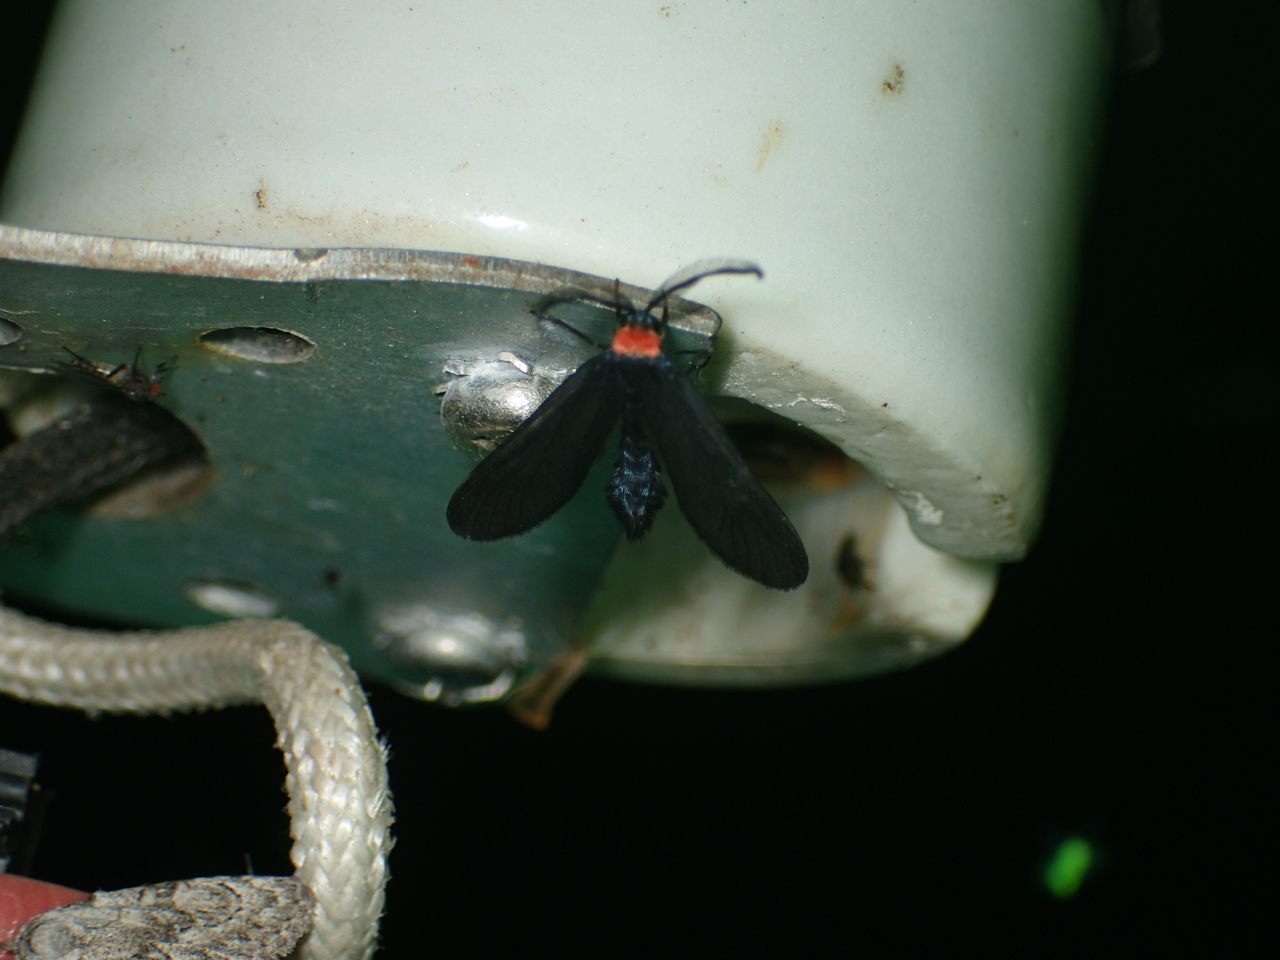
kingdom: Animalia
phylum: Arthropoda
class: Insecta
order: Lepidoptera
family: Zygaenidae
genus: Harrisina
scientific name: Harrisina americana
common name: Grapeleaf skeletonizer moth
